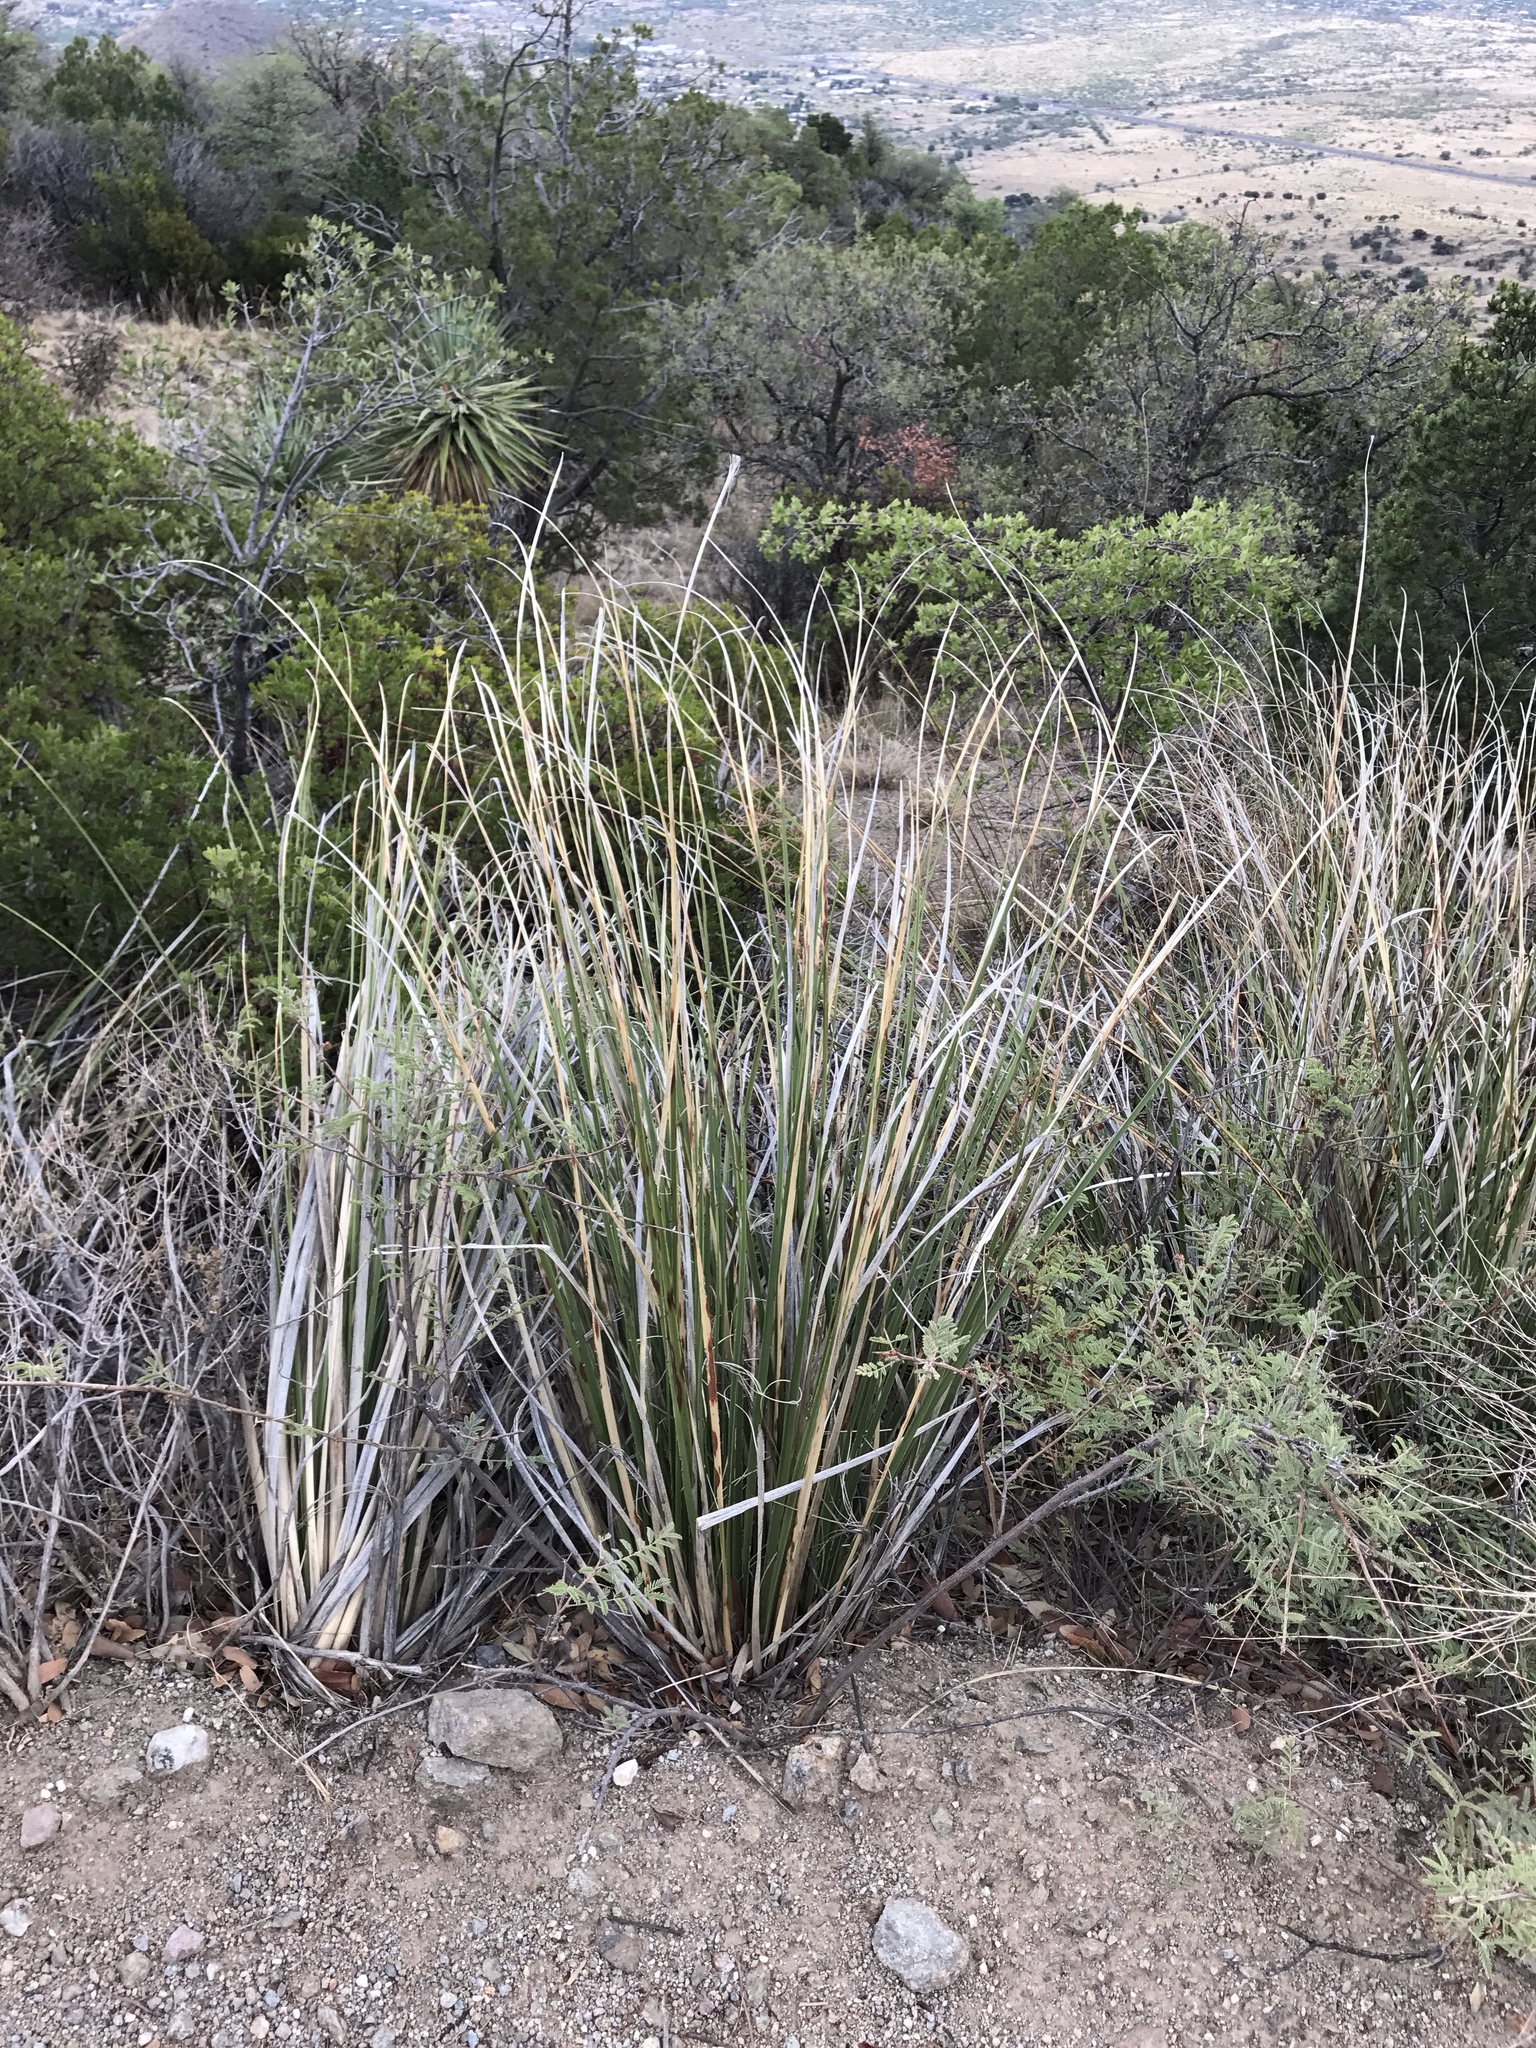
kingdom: Plantae
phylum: Tracheophyta
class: Liliopsida
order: Asparagales
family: Asparagaceae
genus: Nolina
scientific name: Nolina microcarpa
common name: Bear-grass
